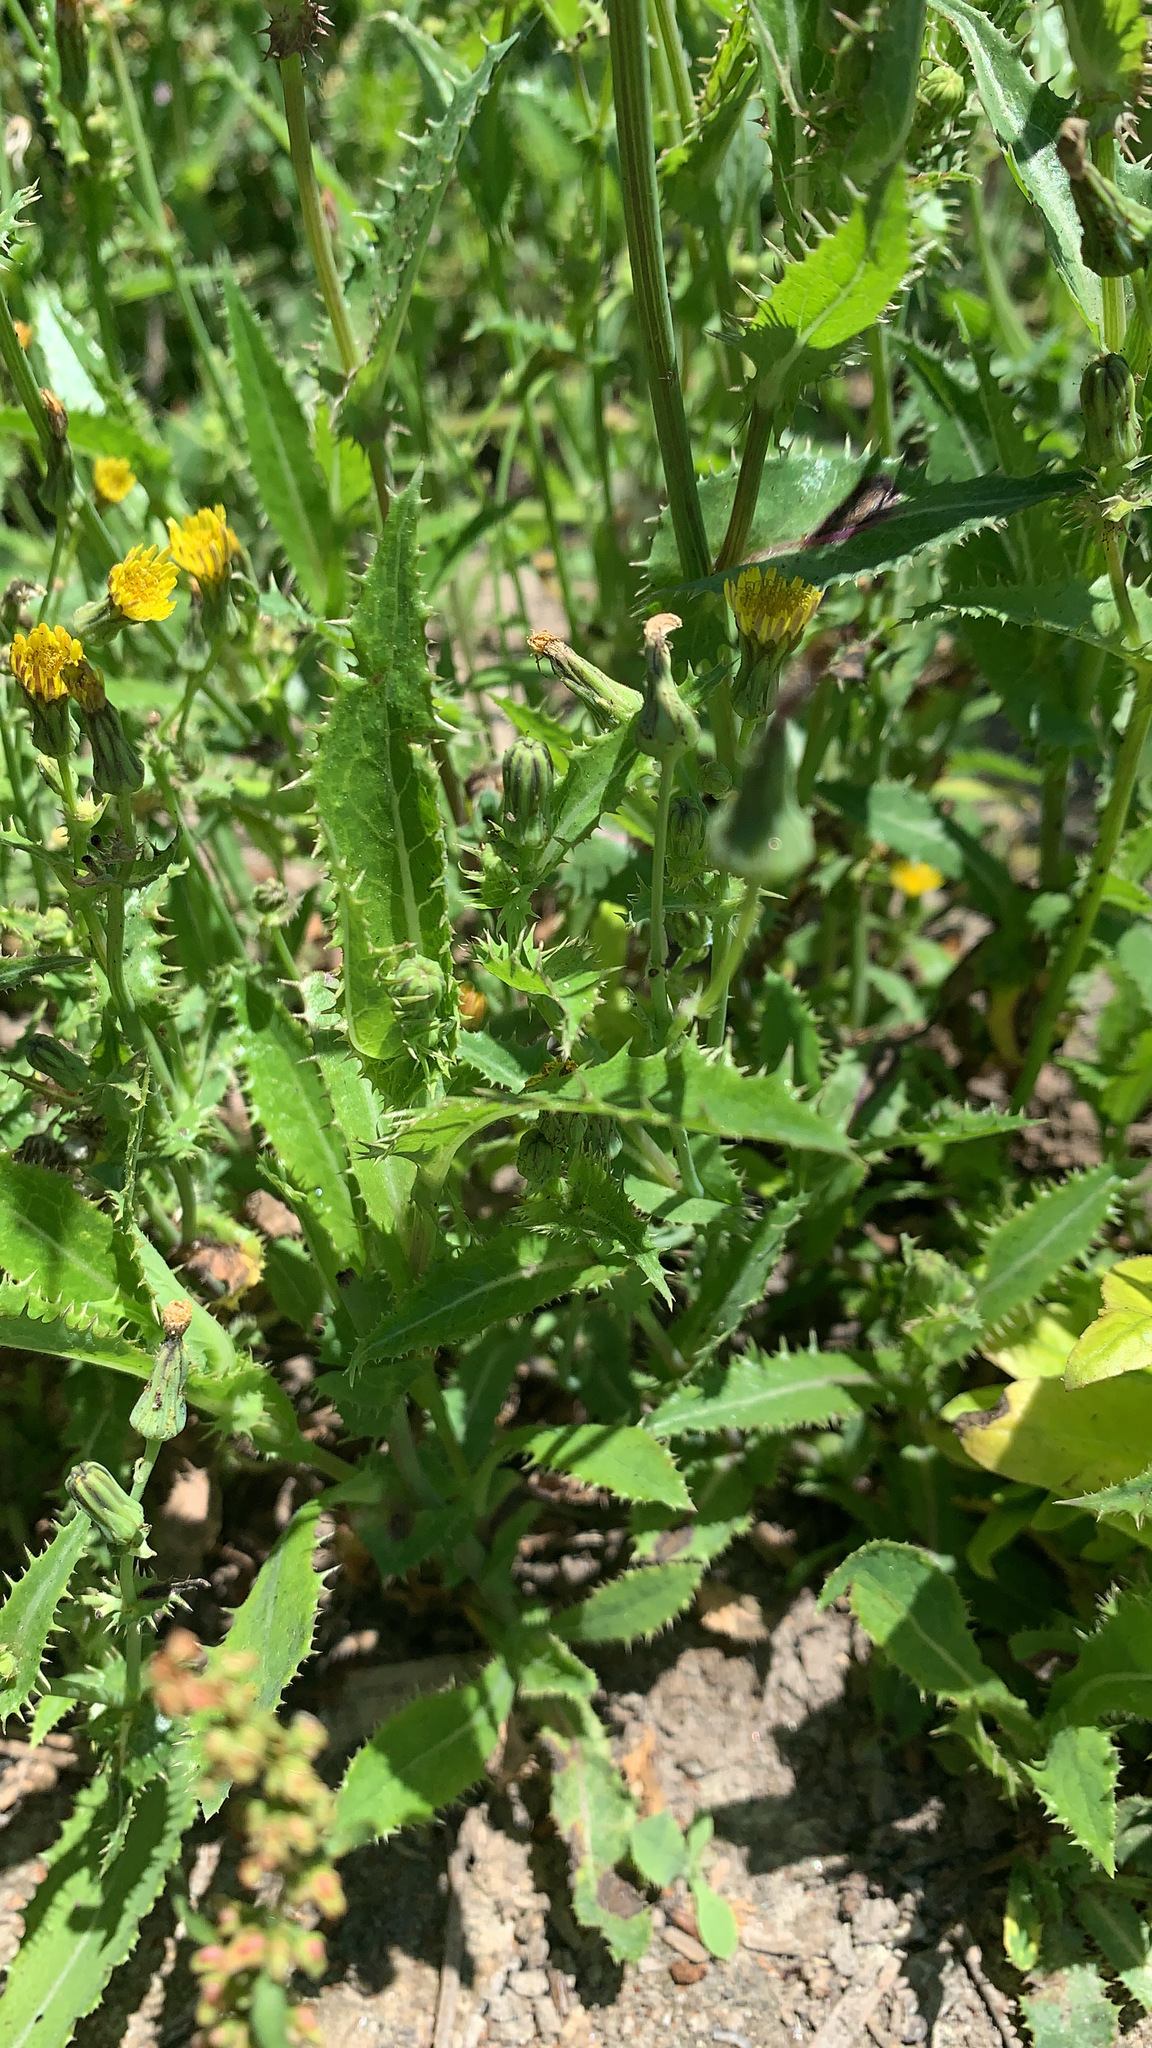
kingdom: Plantae
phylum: Tracheophyta
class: Magnoliopsida
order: Asterales
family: Asteraceae
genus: Sonchus
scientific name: Sonchus asper
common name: Prickly sow-thistle
